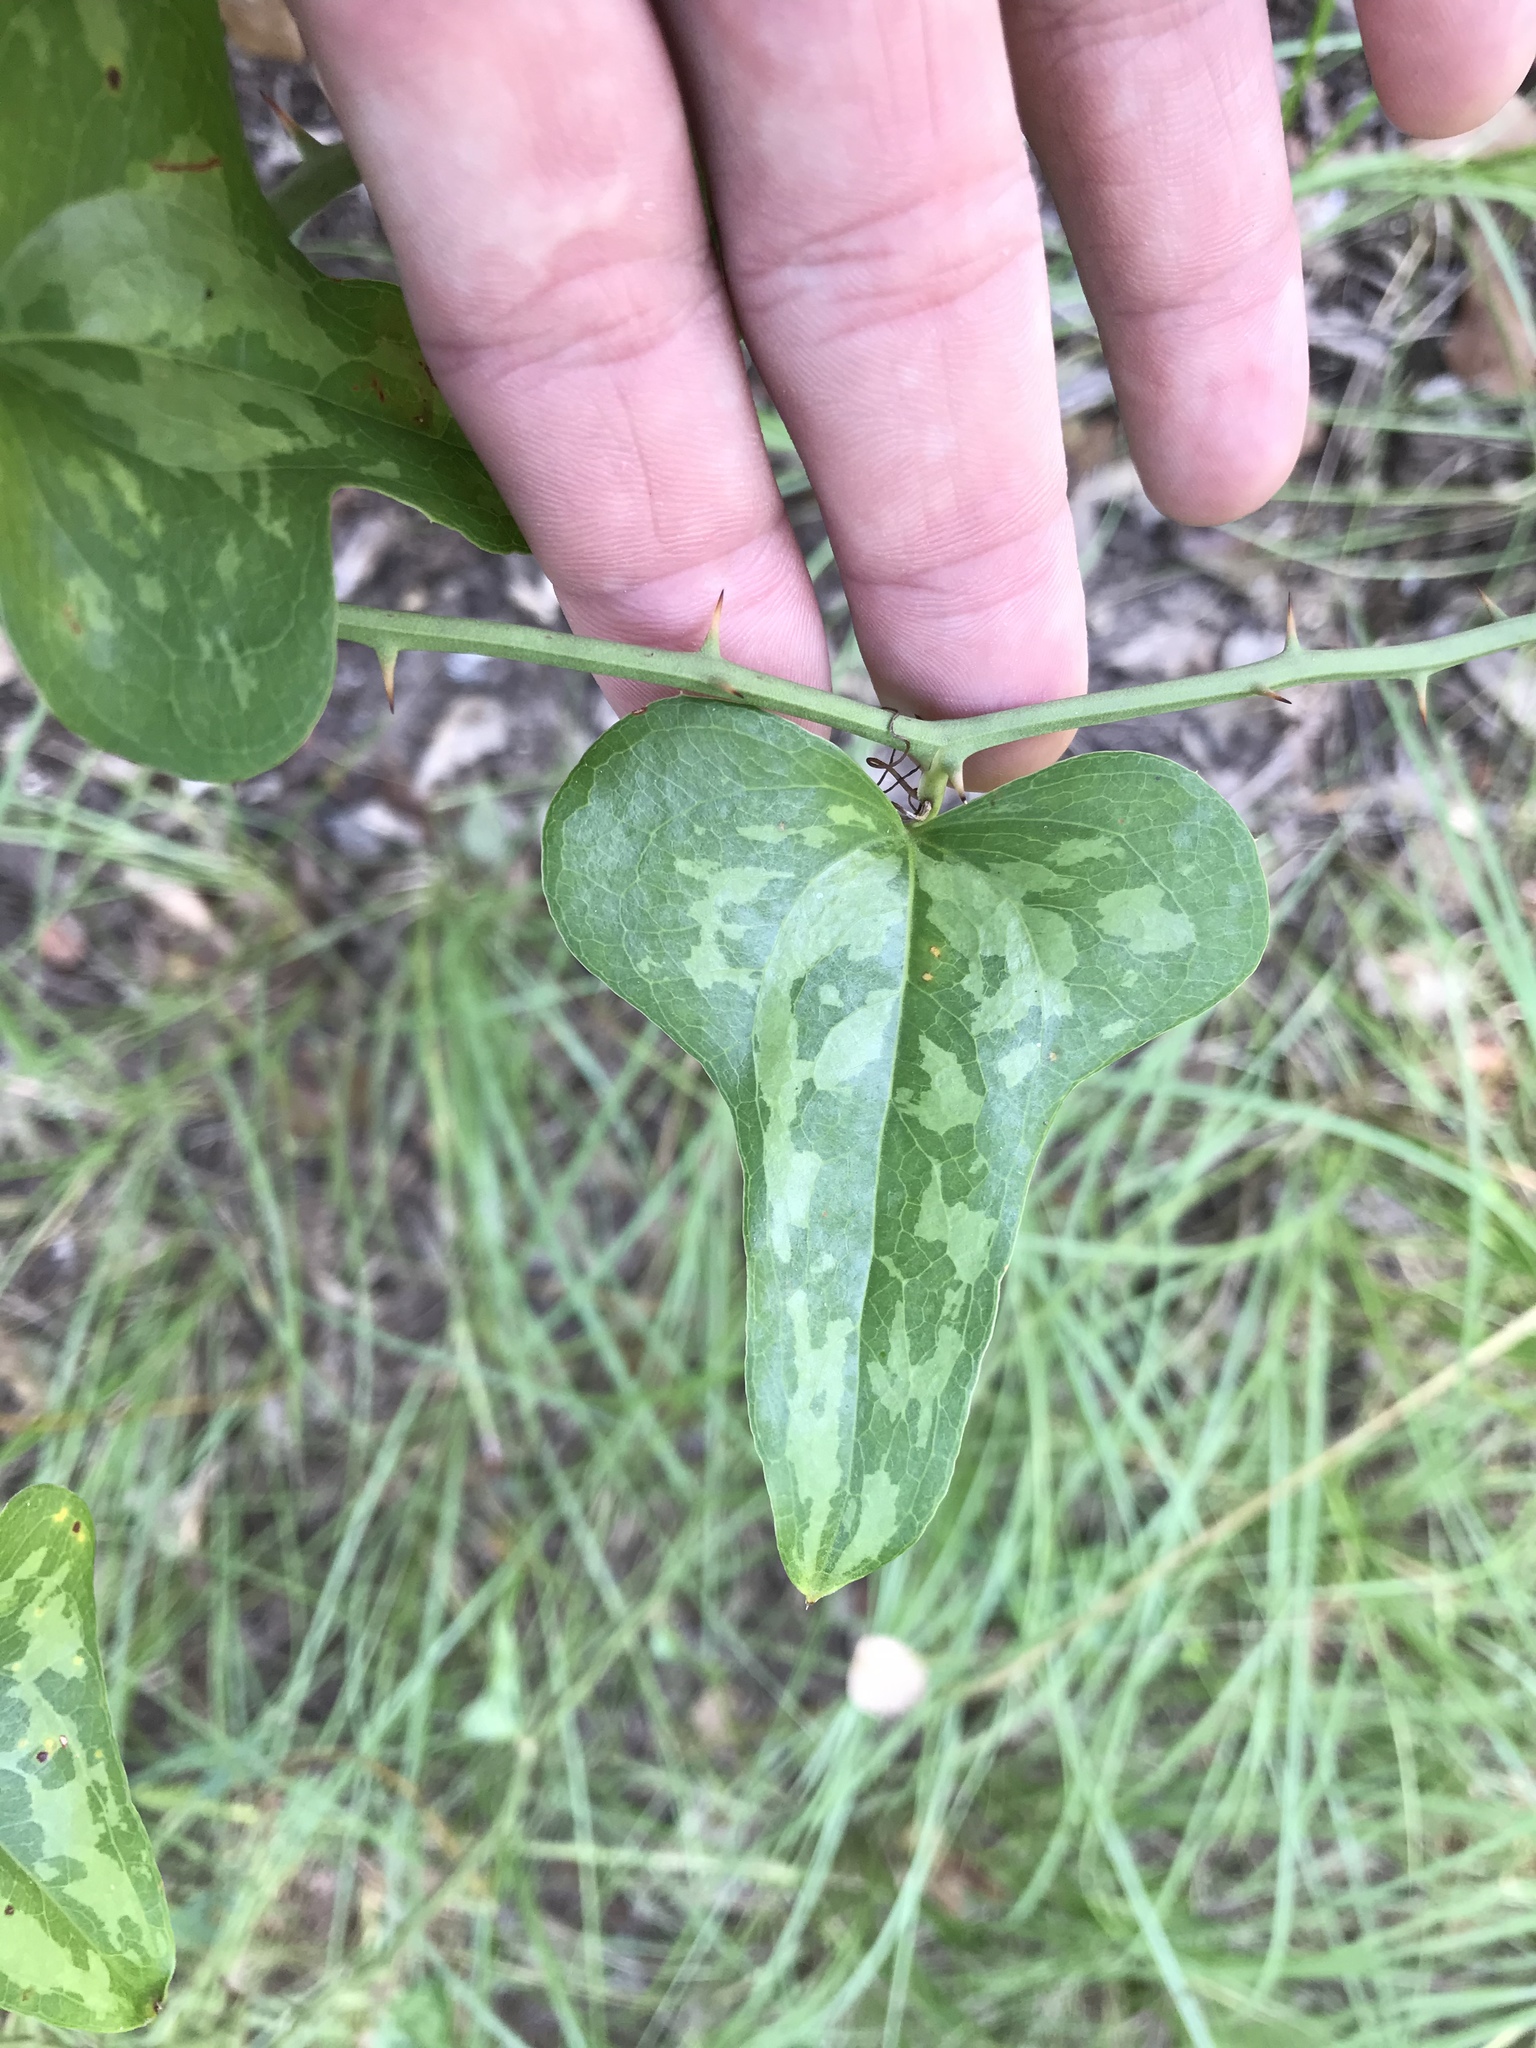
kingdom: Plantae
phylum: Tracheophyta
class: Liliopsida
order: Liliales
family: Smilacaceae
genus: Smilax
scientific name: Smilax bona-nox
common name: Catbrier
